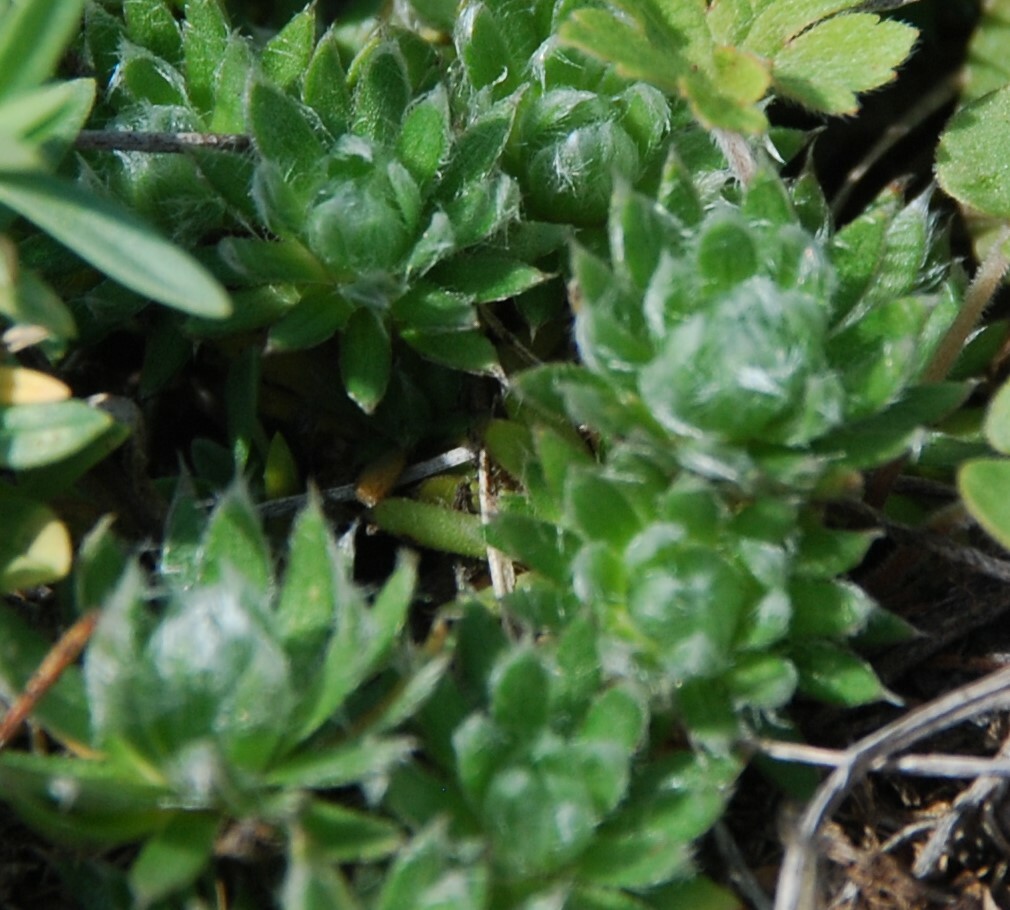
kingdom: Plantae
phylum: Tracheophyta
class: Magnoliopsida
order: Ericales
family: Primulaceae
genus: Androsace
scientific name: Androsace incana
